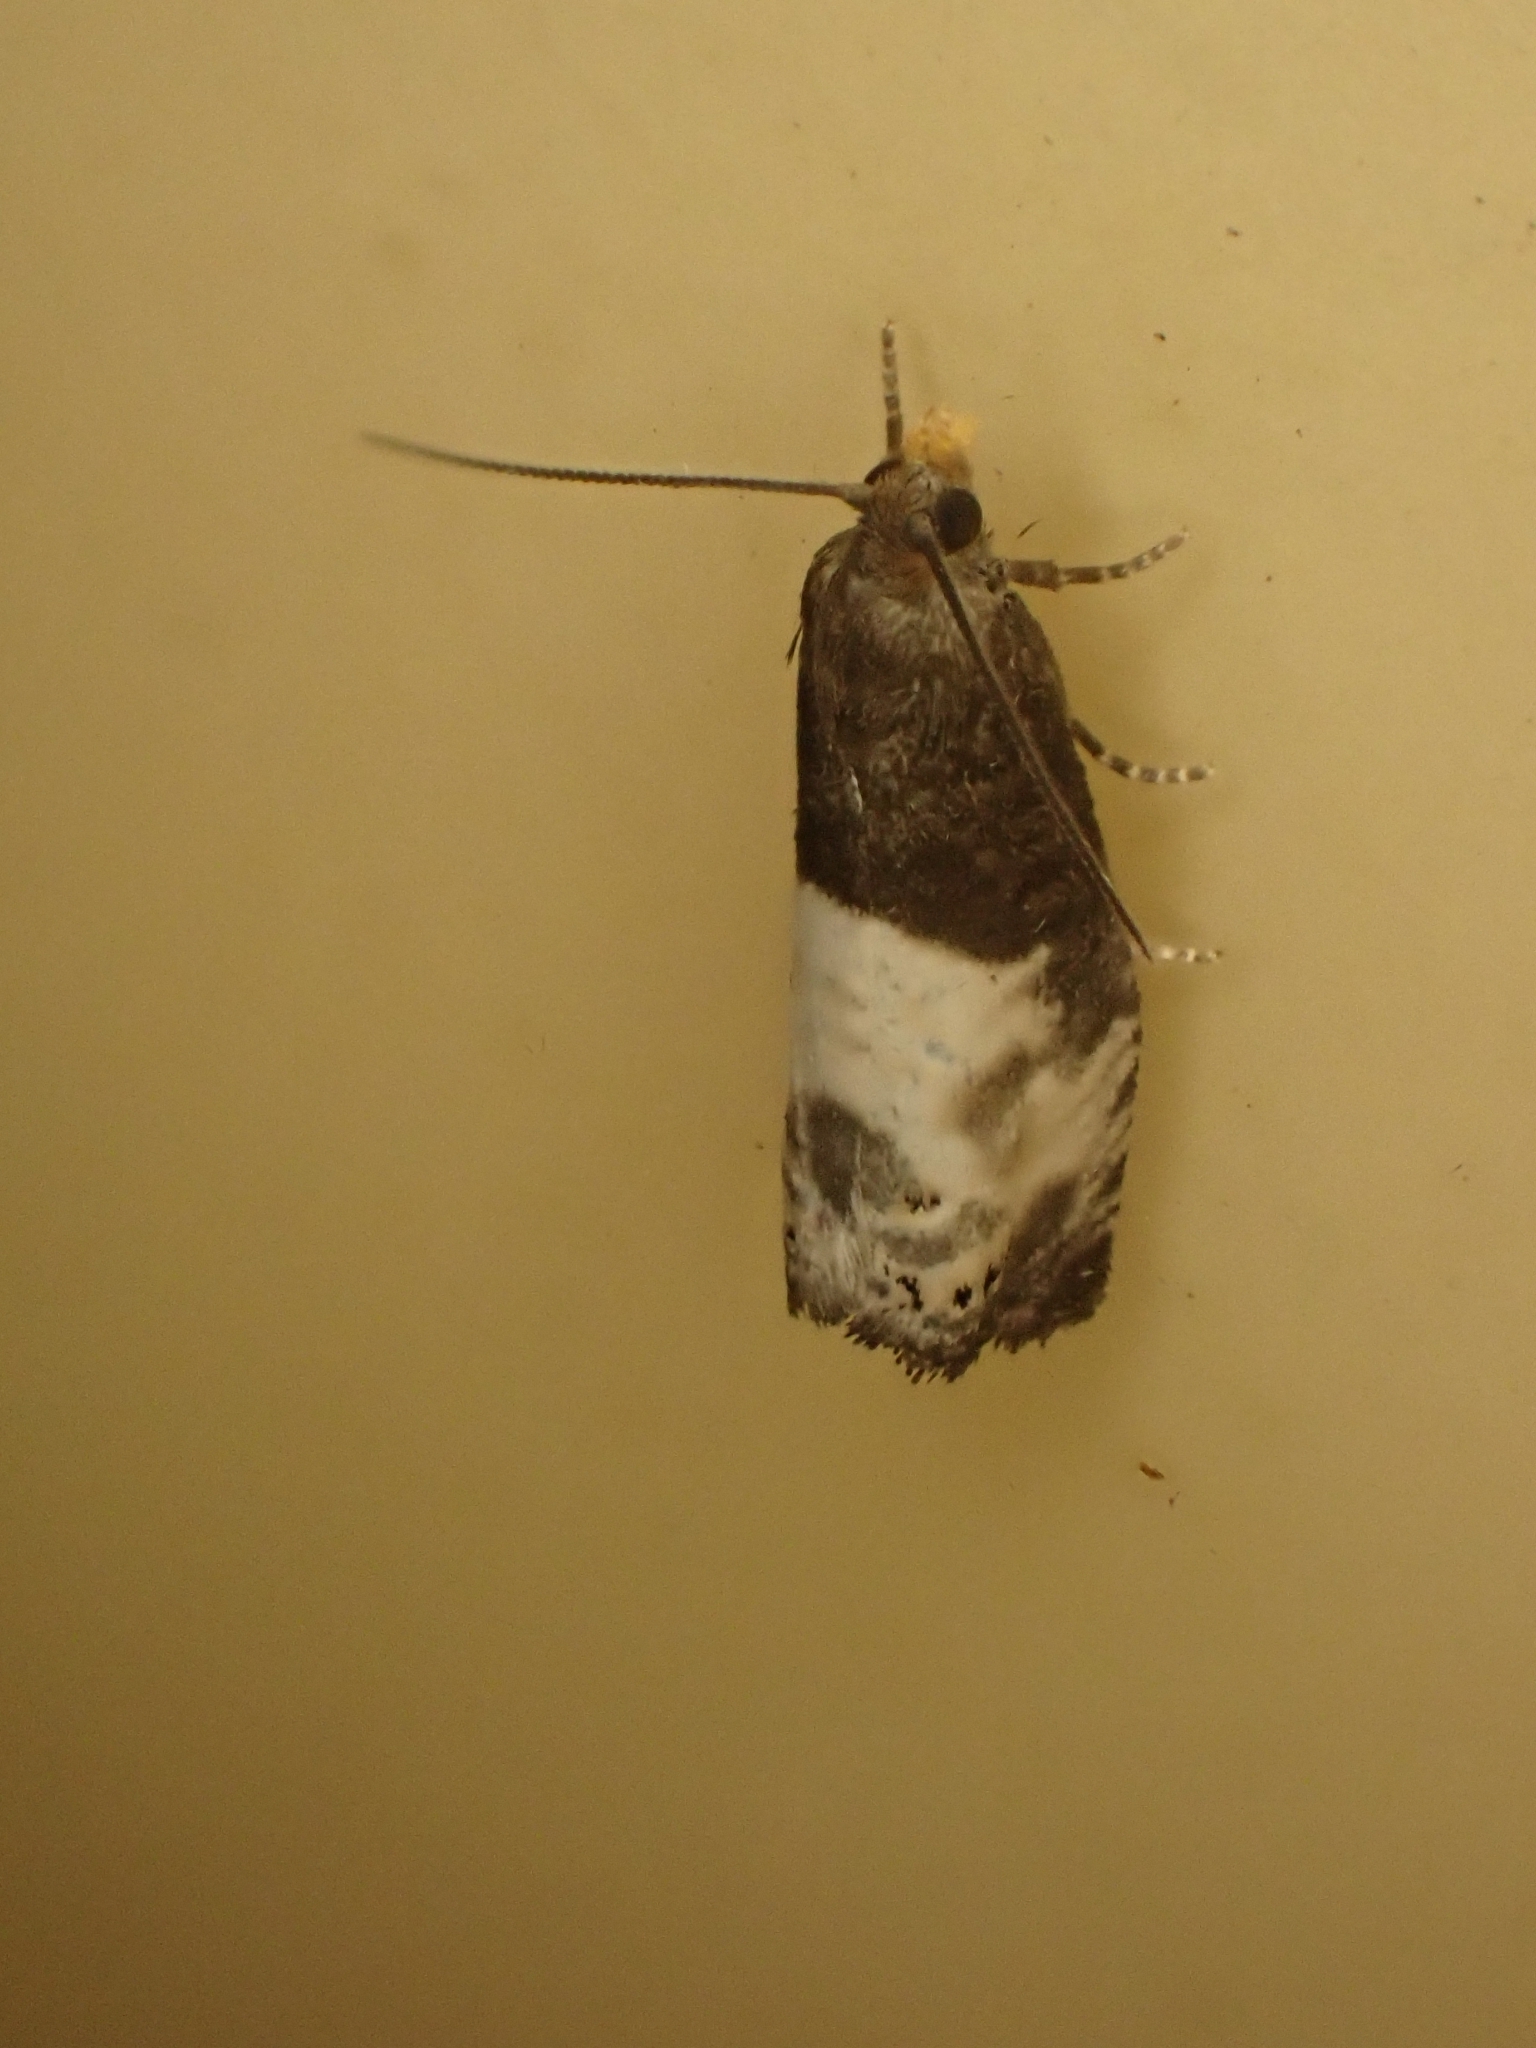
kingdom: Animalia
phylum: Arthropoda
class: Insecta
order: Lepidoptera
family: Tortricidae
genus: Notocelia
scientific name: Notocelia cynosbatella
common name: Yellow-faced bell moth
